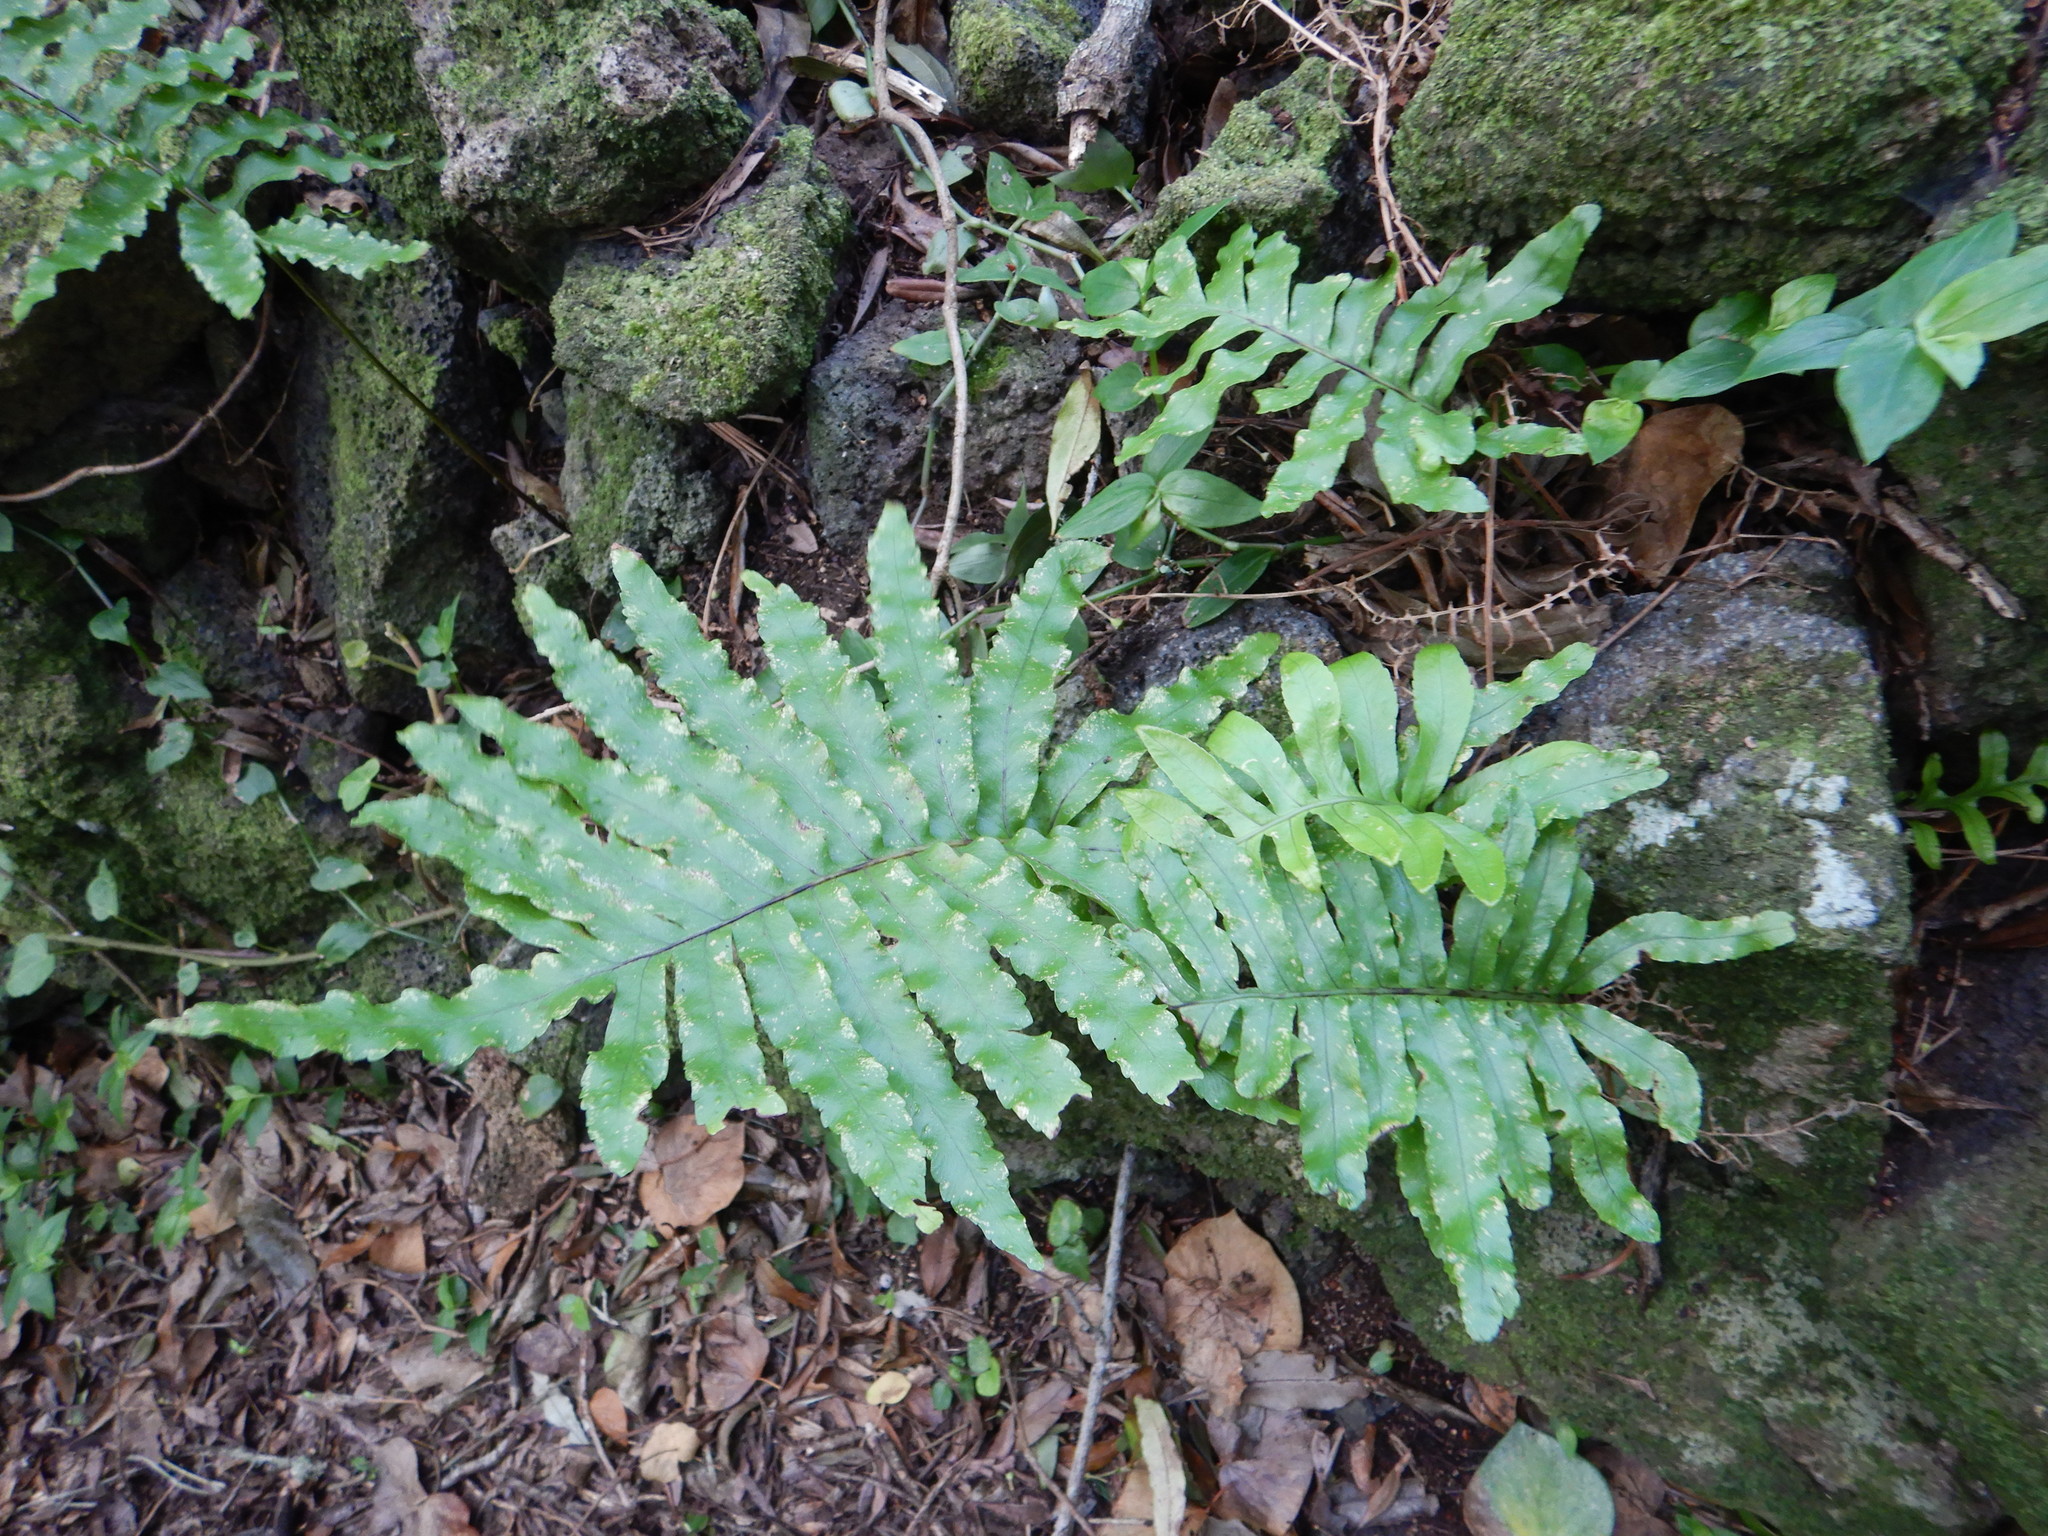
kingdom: Plantae
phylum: Tracheophyta
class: Polypodiopsida
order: Polypodiales
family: Polypodiaceae
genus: Polypodium
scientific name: Polypodium macaronesicum
